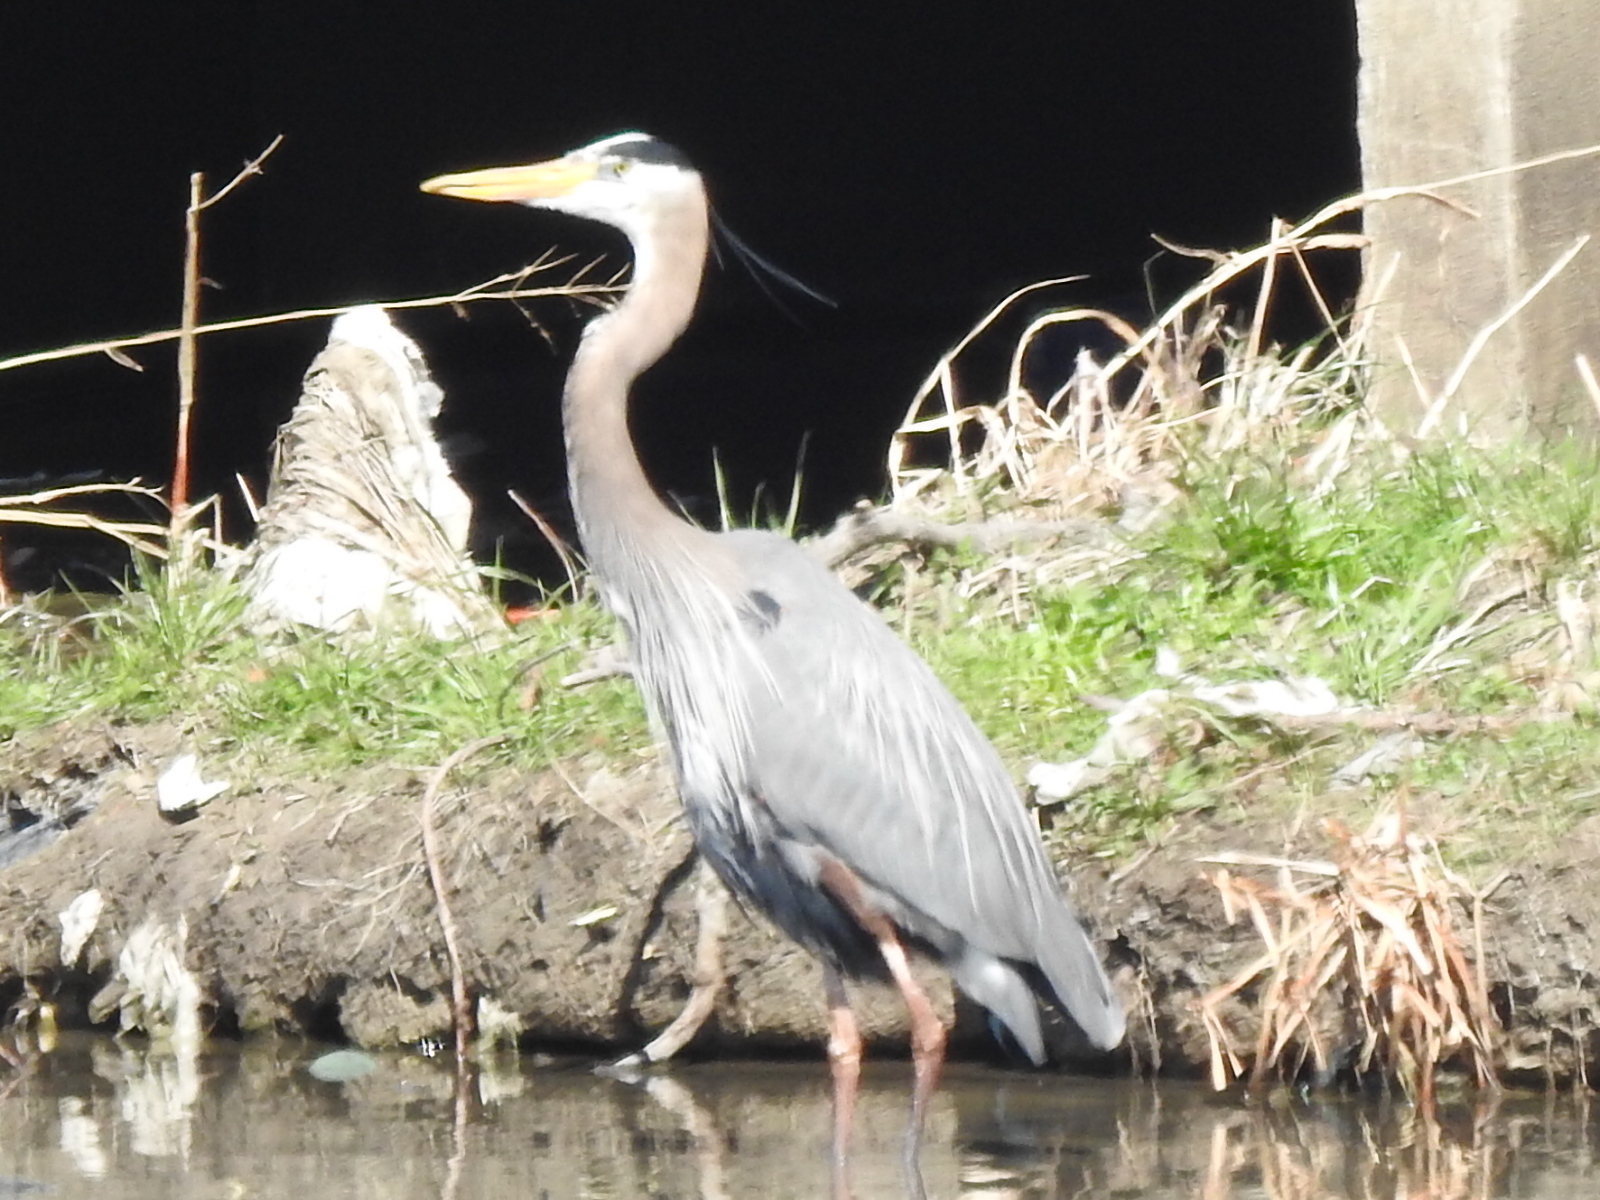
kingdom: Animalia
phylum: Chordata
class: Aves
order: Pelecaniformes
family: Ardeidae
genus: Ardea
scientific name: Ardea herodias
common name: Great blue heron
